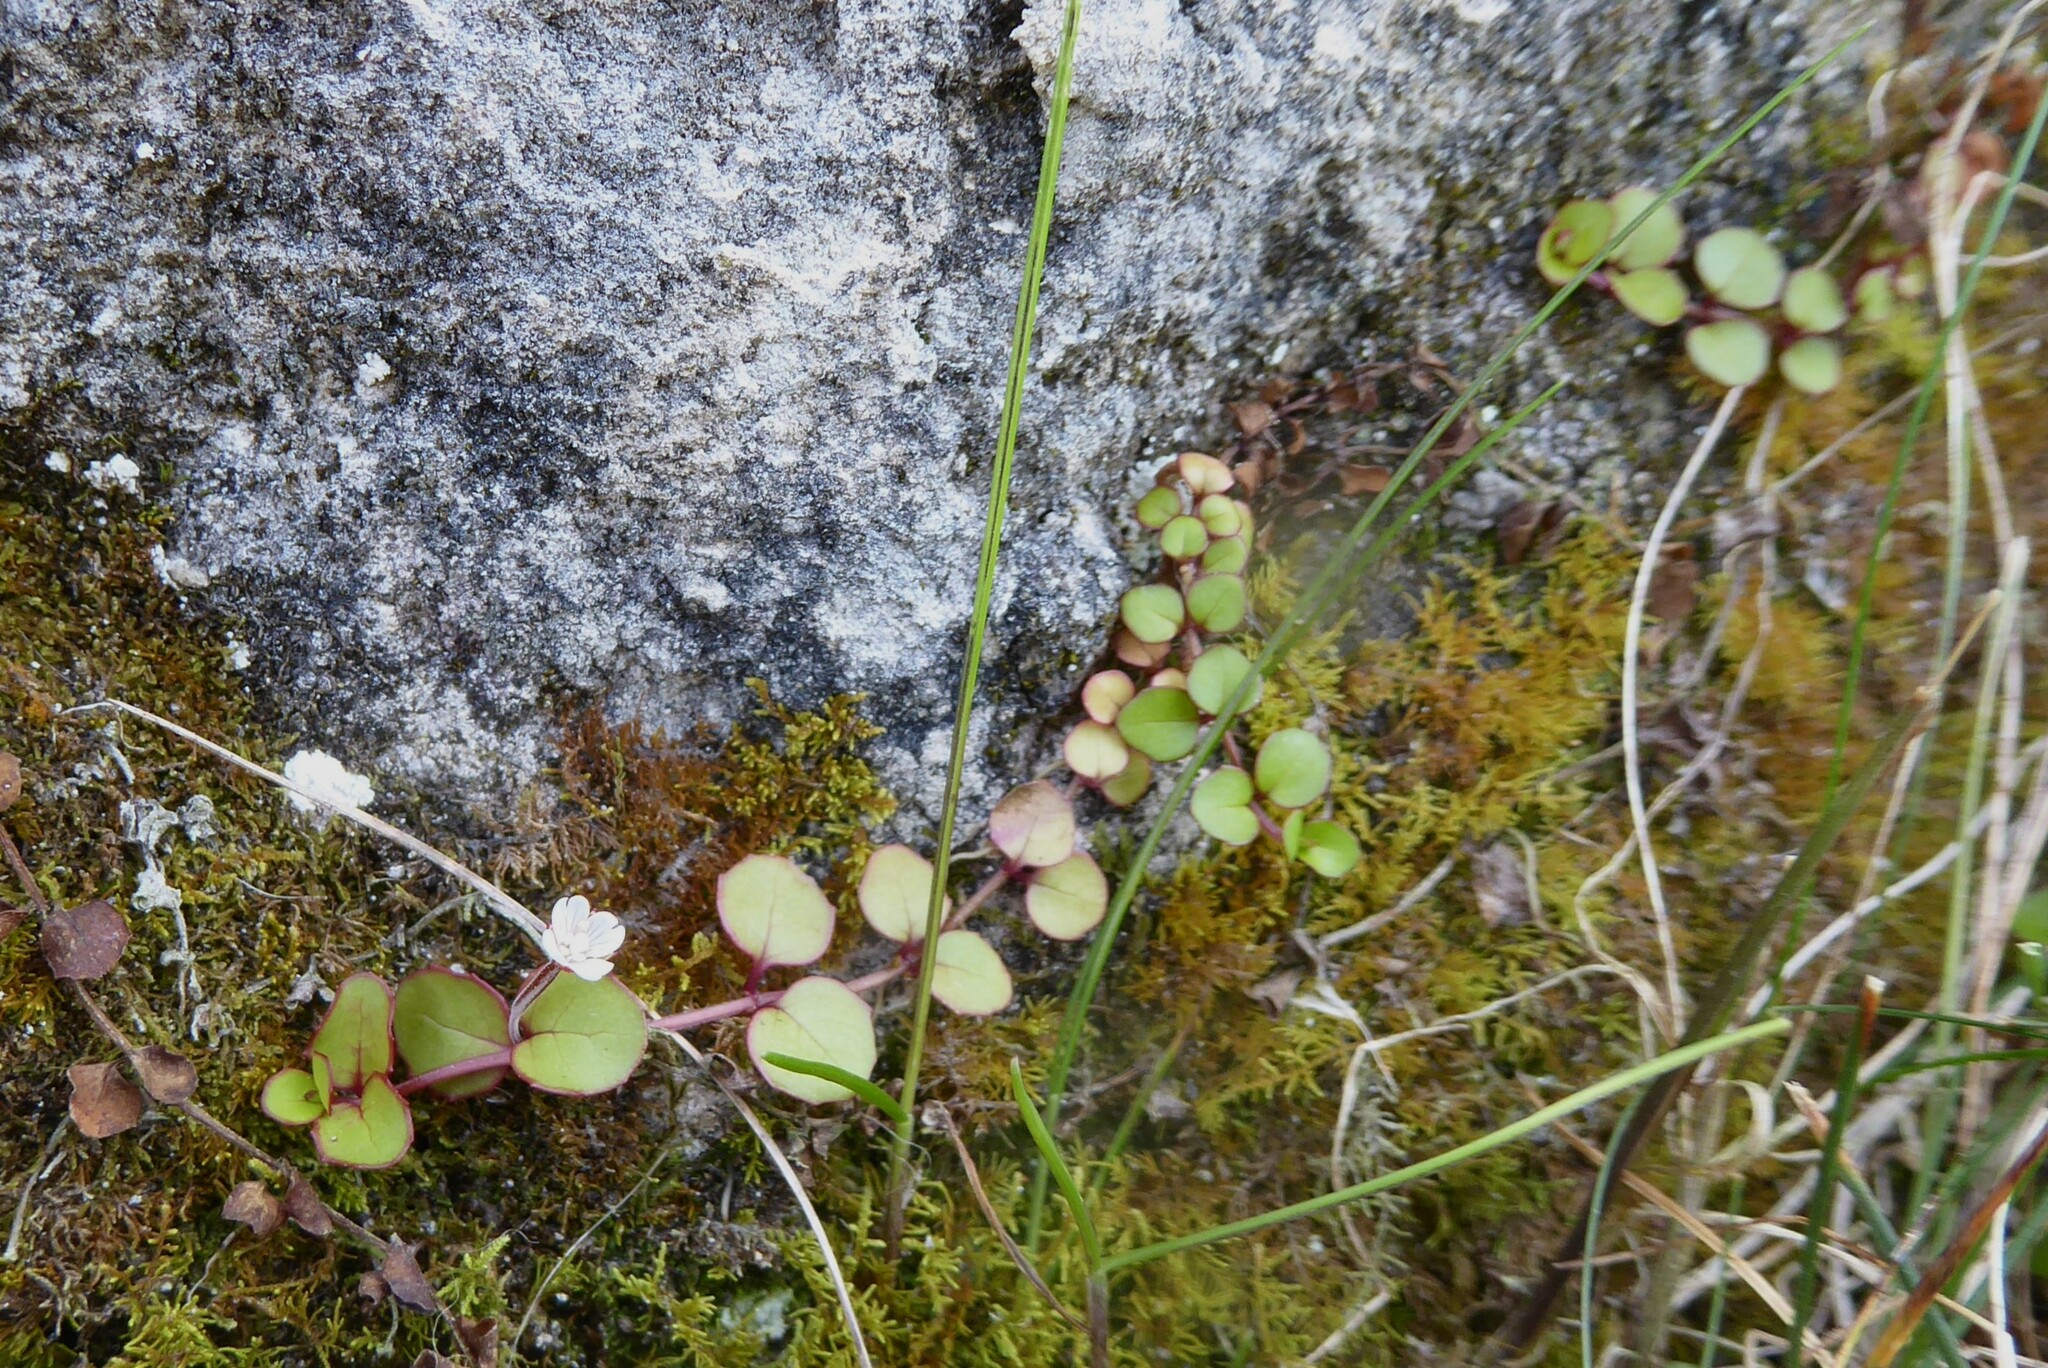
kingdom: Plantae
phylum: Tracheophyta
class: Magnoliopsida
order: Myrtales
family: Onagraceae
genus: Epilobium
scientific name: Epilobium nummularifolium
